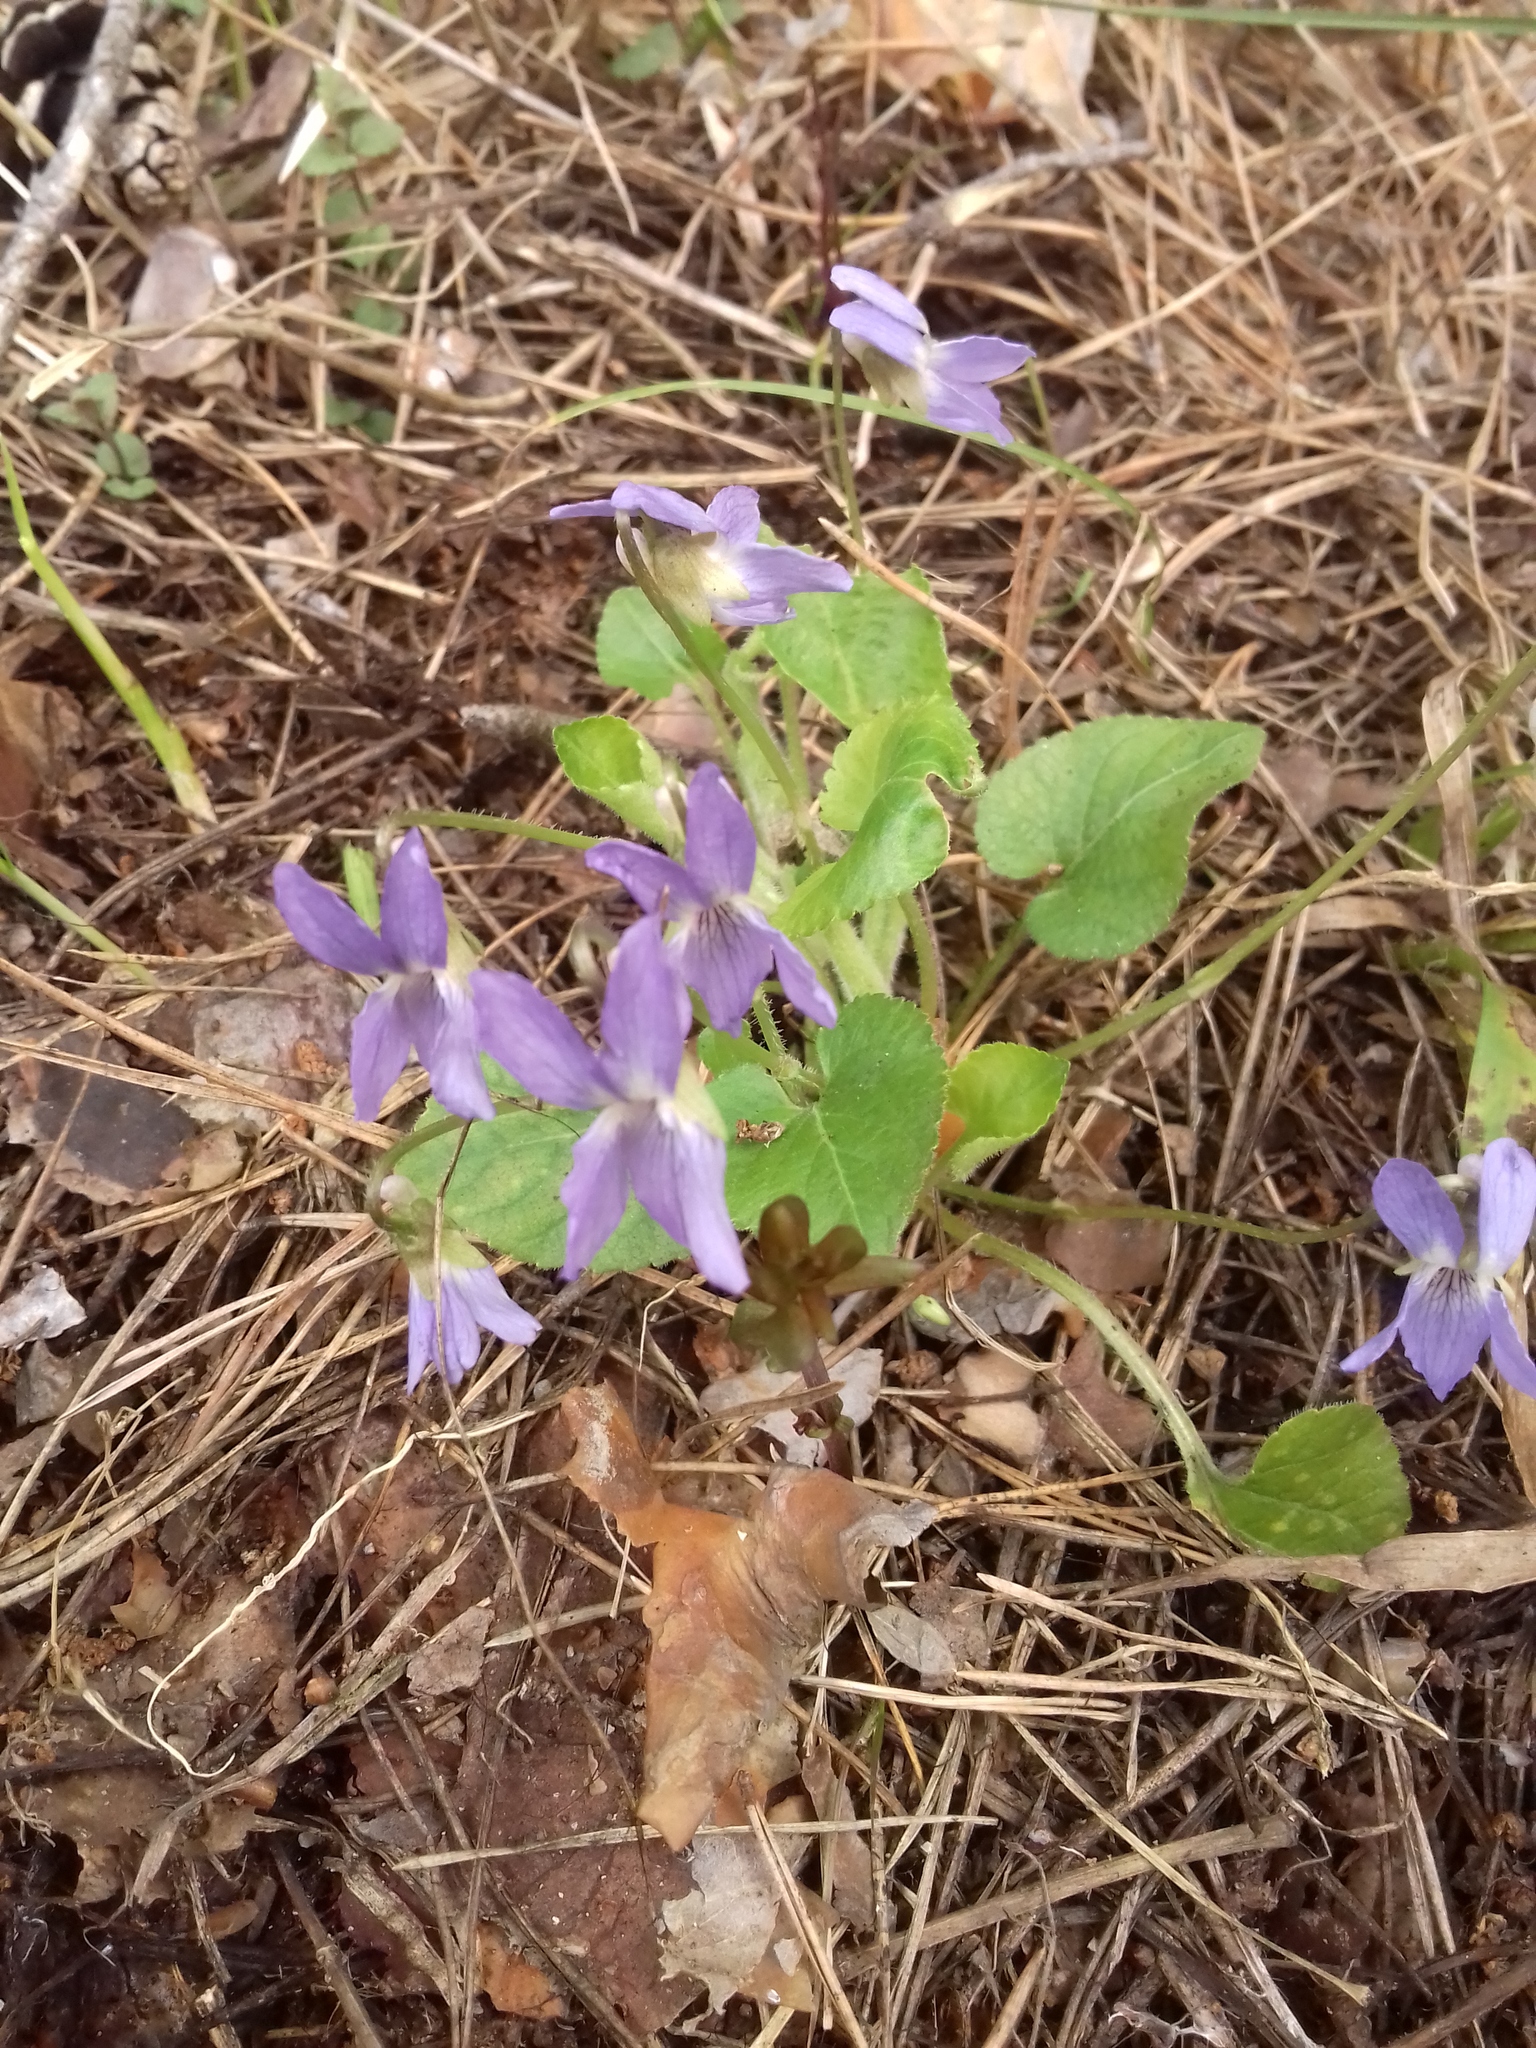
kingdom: Plantae
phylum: Tracheophyta
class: Magnoliopsida
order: Malpighiales
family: Violaceae
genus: Viola
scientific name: Viola collina
